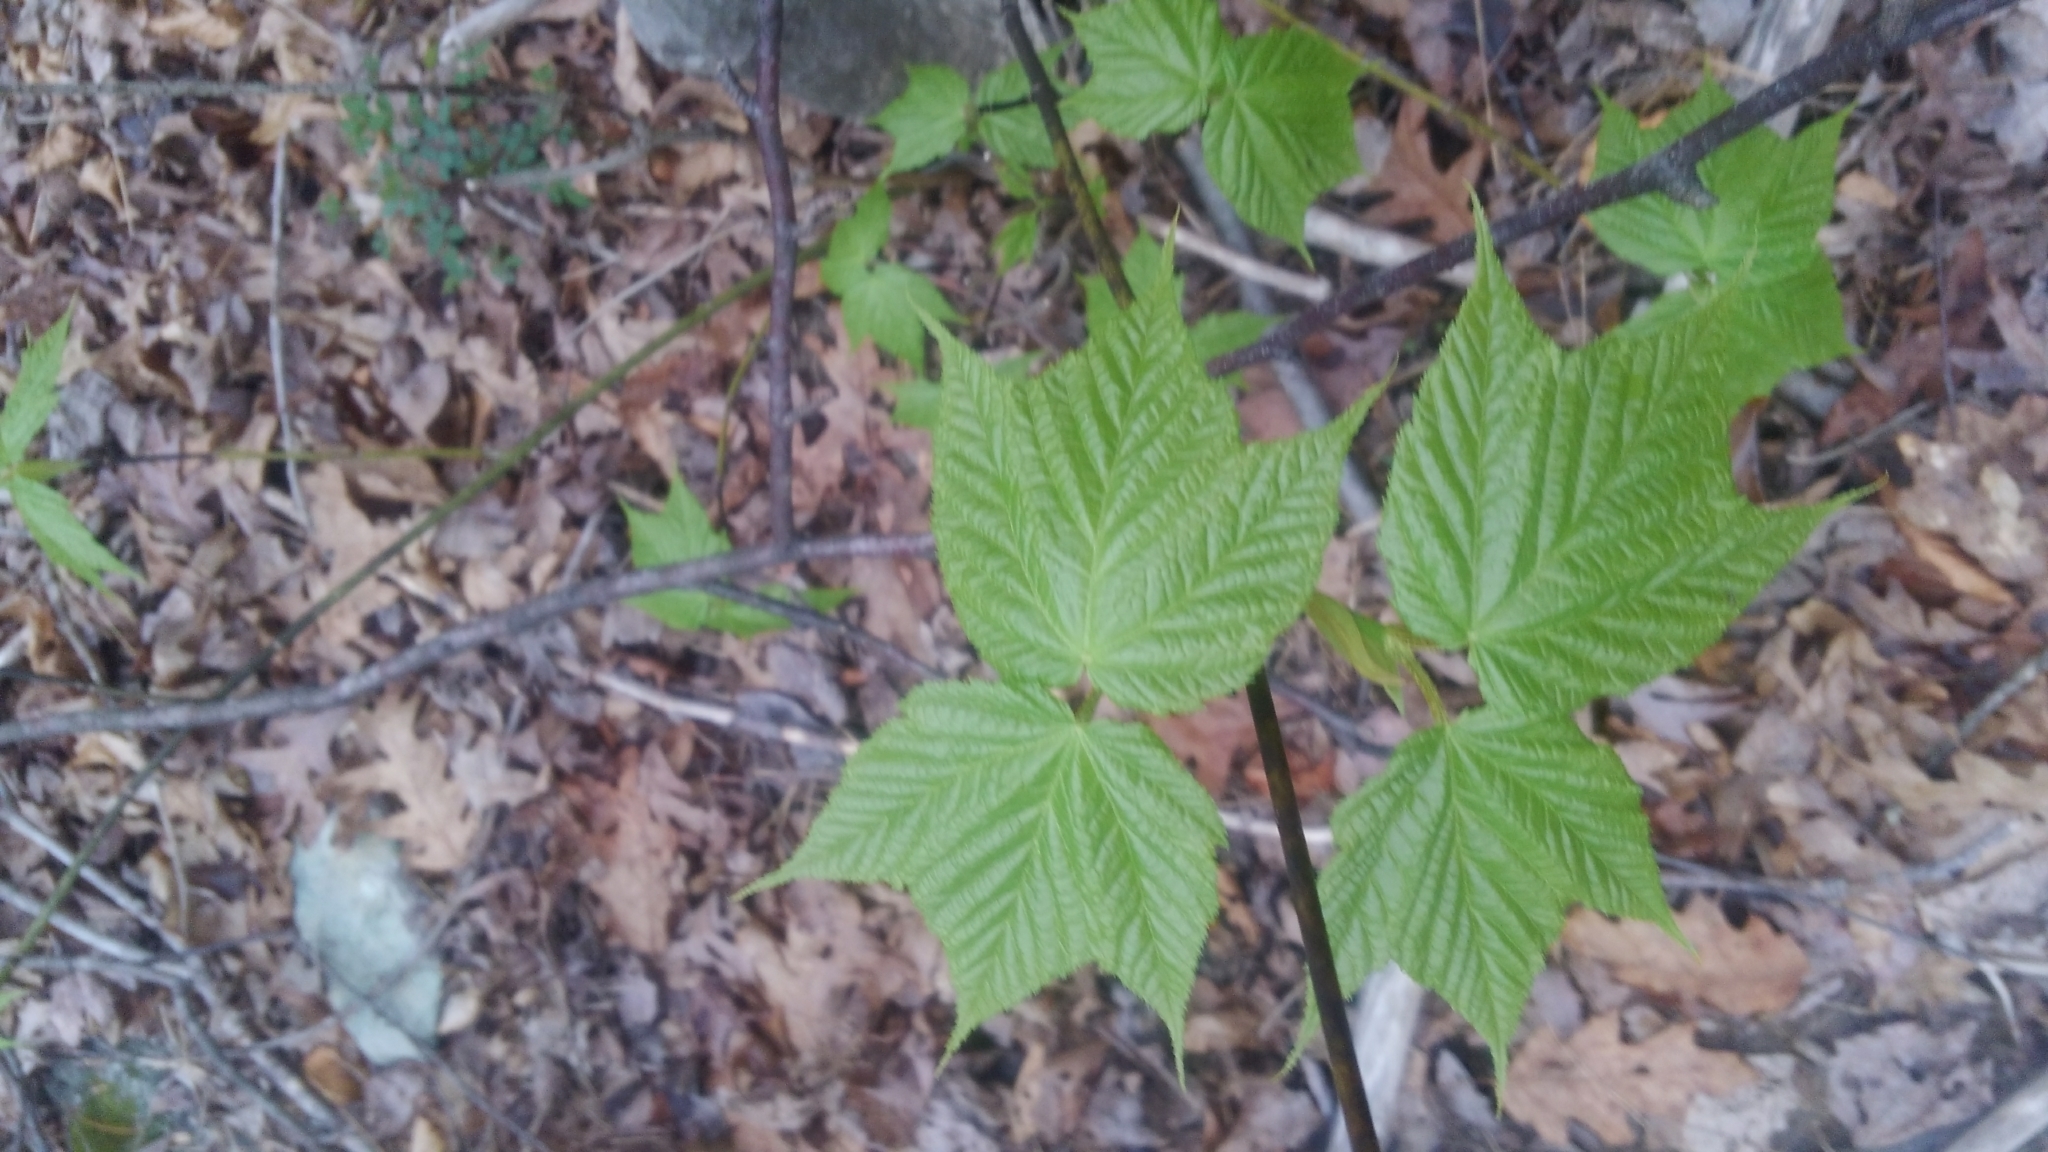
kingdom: Plantae
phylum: Tracheophyta
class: Magnoliopsida
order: Sapindales
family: Sapindaceae
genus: Acer
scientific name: Acer pensylvanicum
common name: Moosewood
